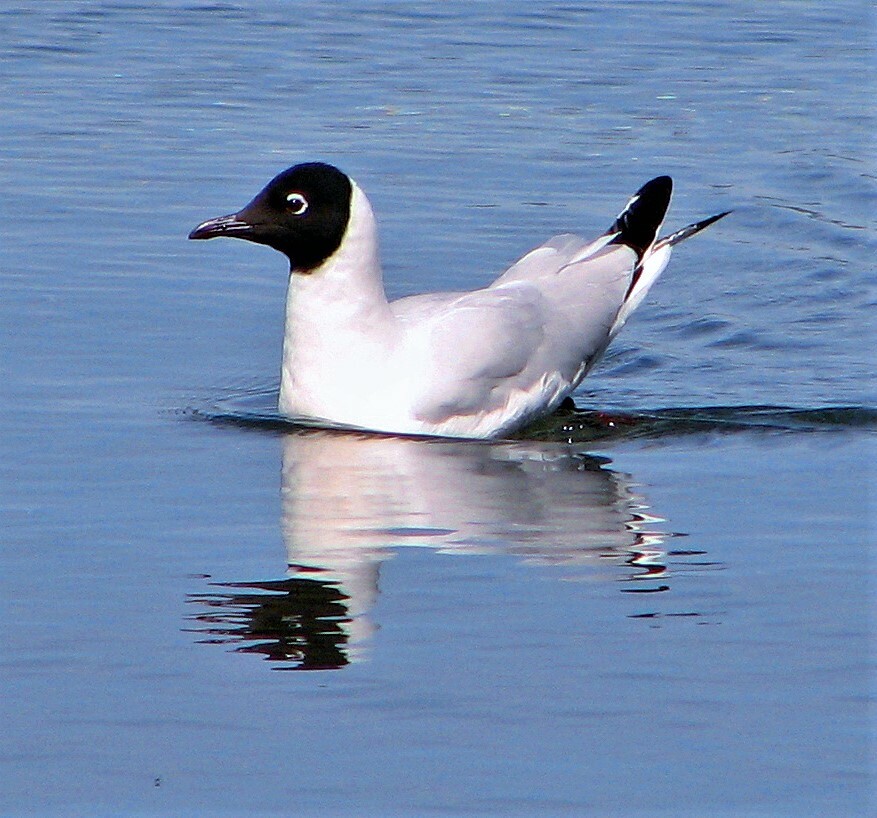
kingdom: Animalia
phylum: Chordata
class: Aves
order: Charadriiformes
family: Laridae
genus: Chroicocephalus
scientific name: Chroicocephalus serranus
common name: Andean gull
